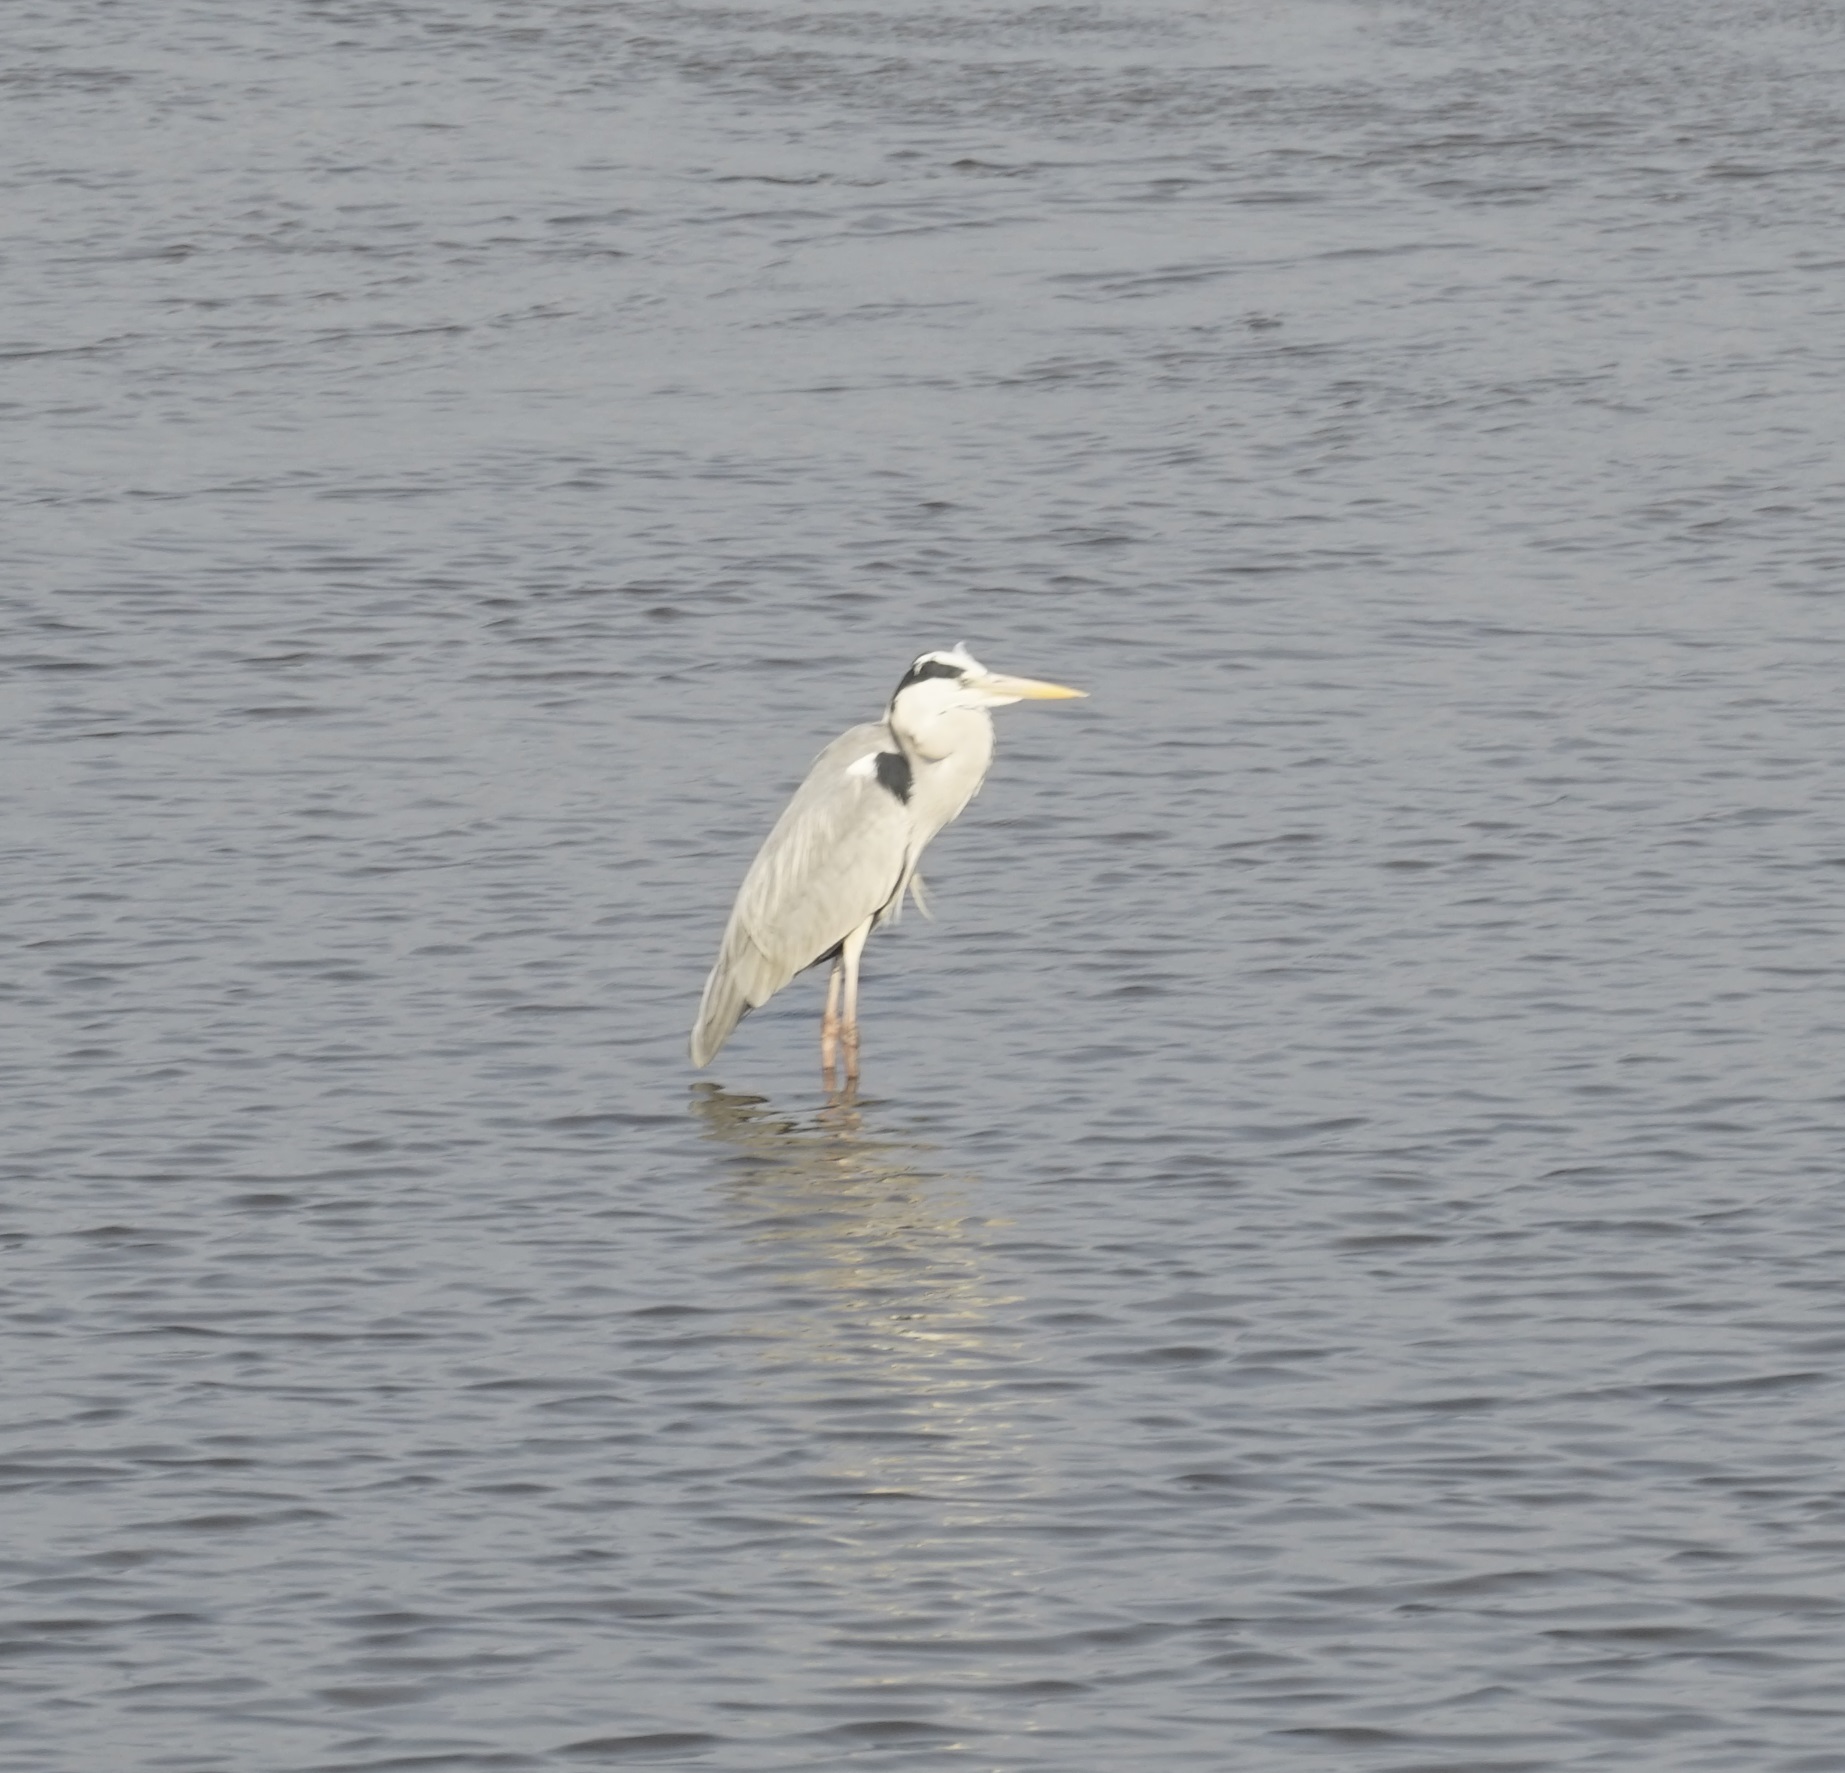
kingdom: Animalia
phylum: Chordata
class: Aves
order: Pelecaniformes
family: Ardeidae
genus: Ardea
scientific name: Ardea cinerea
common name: Grey heron
